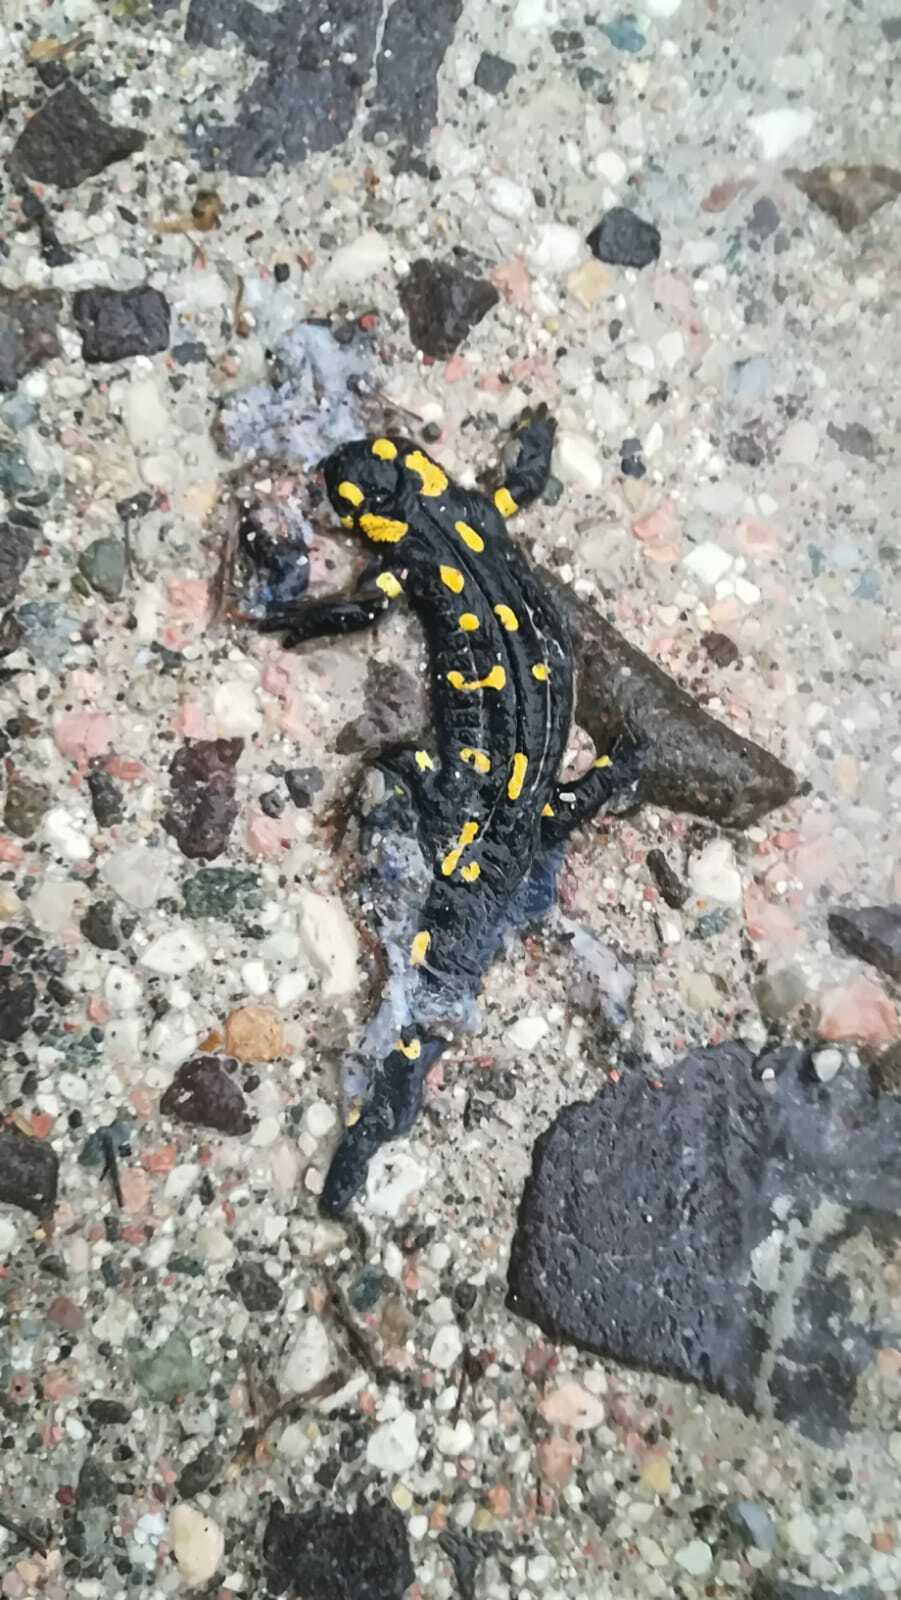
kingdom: Animalia
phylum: Chordata
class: Amphibia
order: Caudata
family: Salamandridae
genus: Salamandra
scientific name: Salamandra salamandra
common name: Fire salamander
